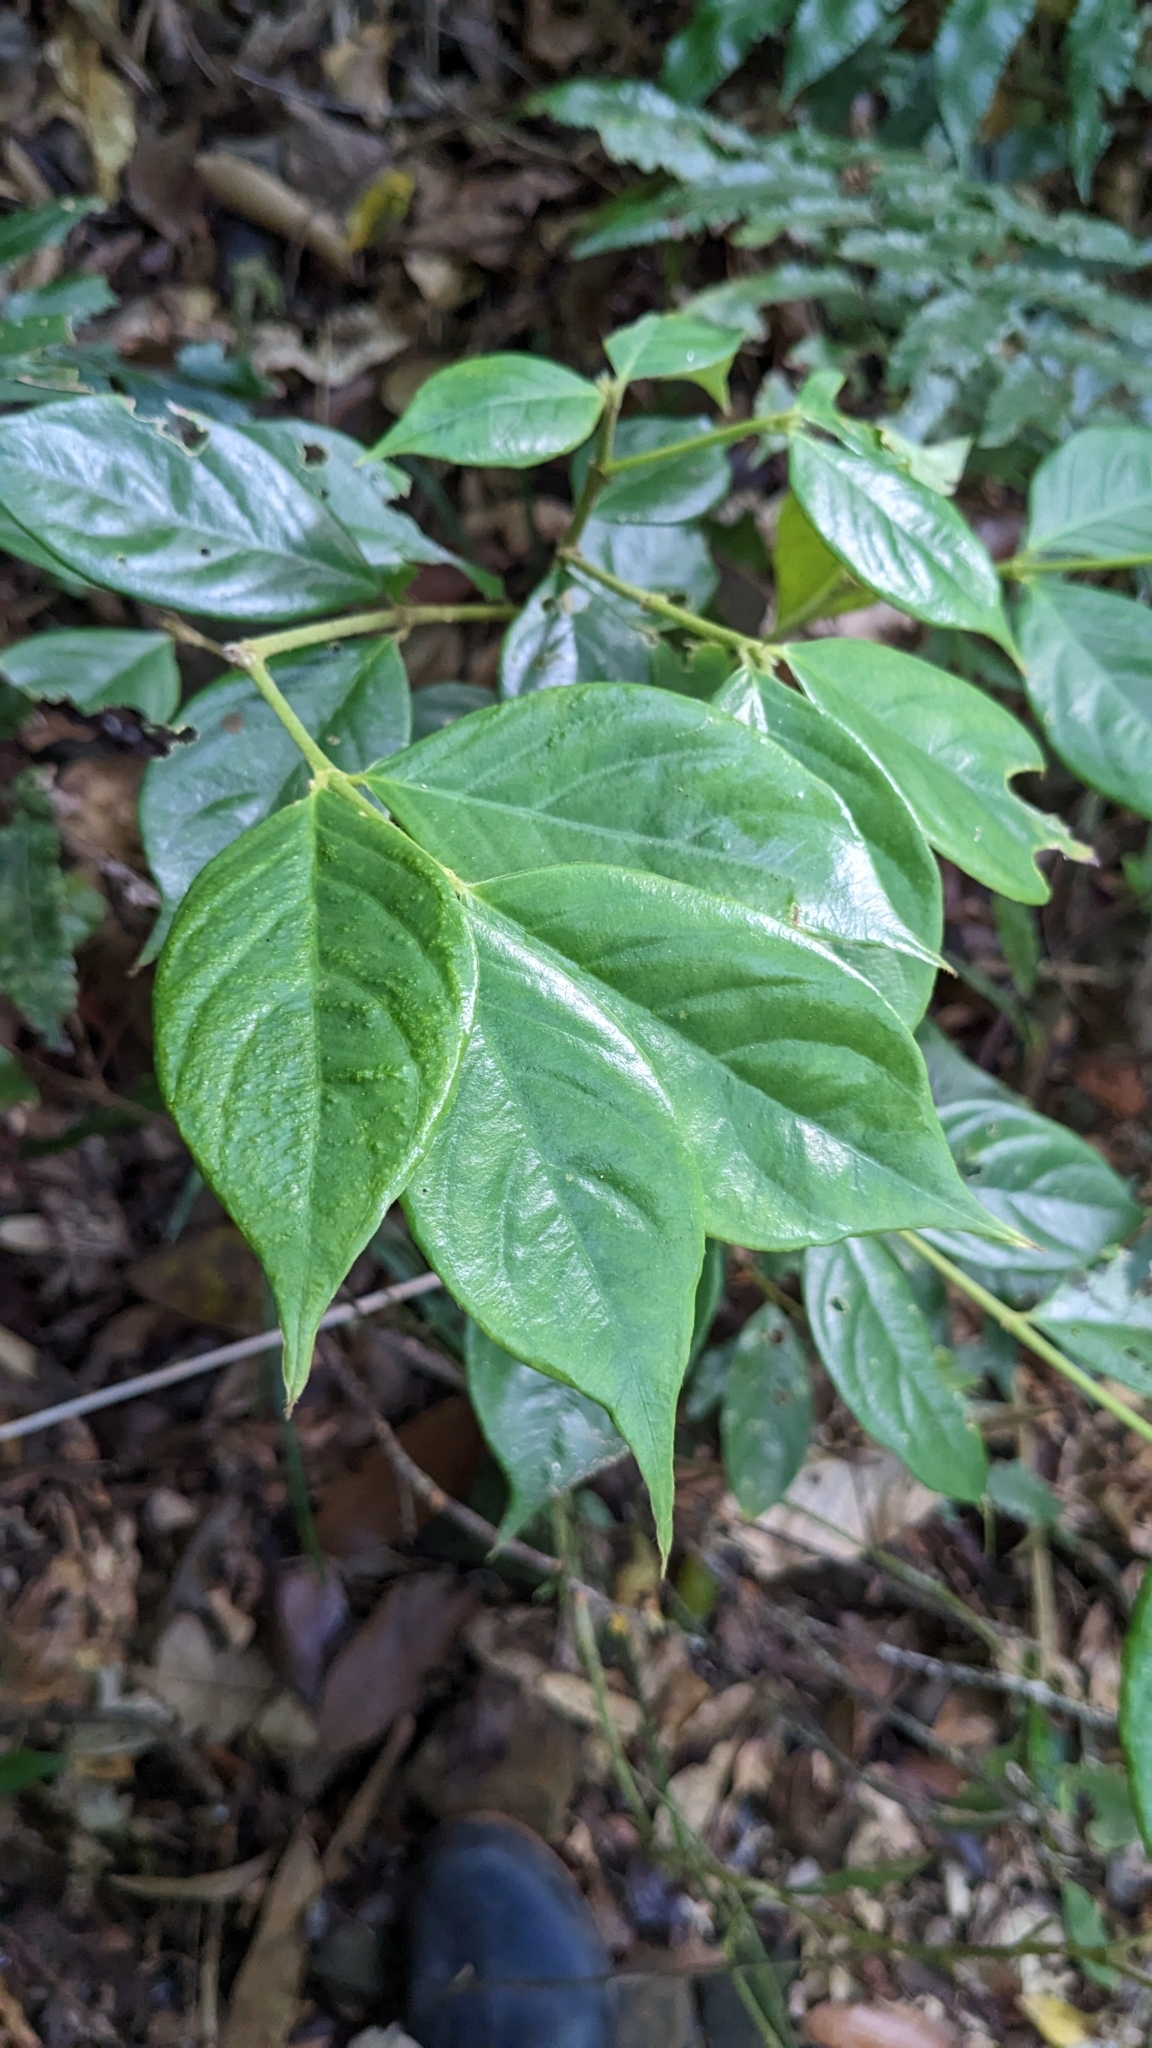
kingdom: Plantae
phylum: Tracheophyta
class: Magnoliopsida
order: Gentianales
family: Rubiaceae
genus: Lasianthus
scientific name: Lasianthus hispidulus
